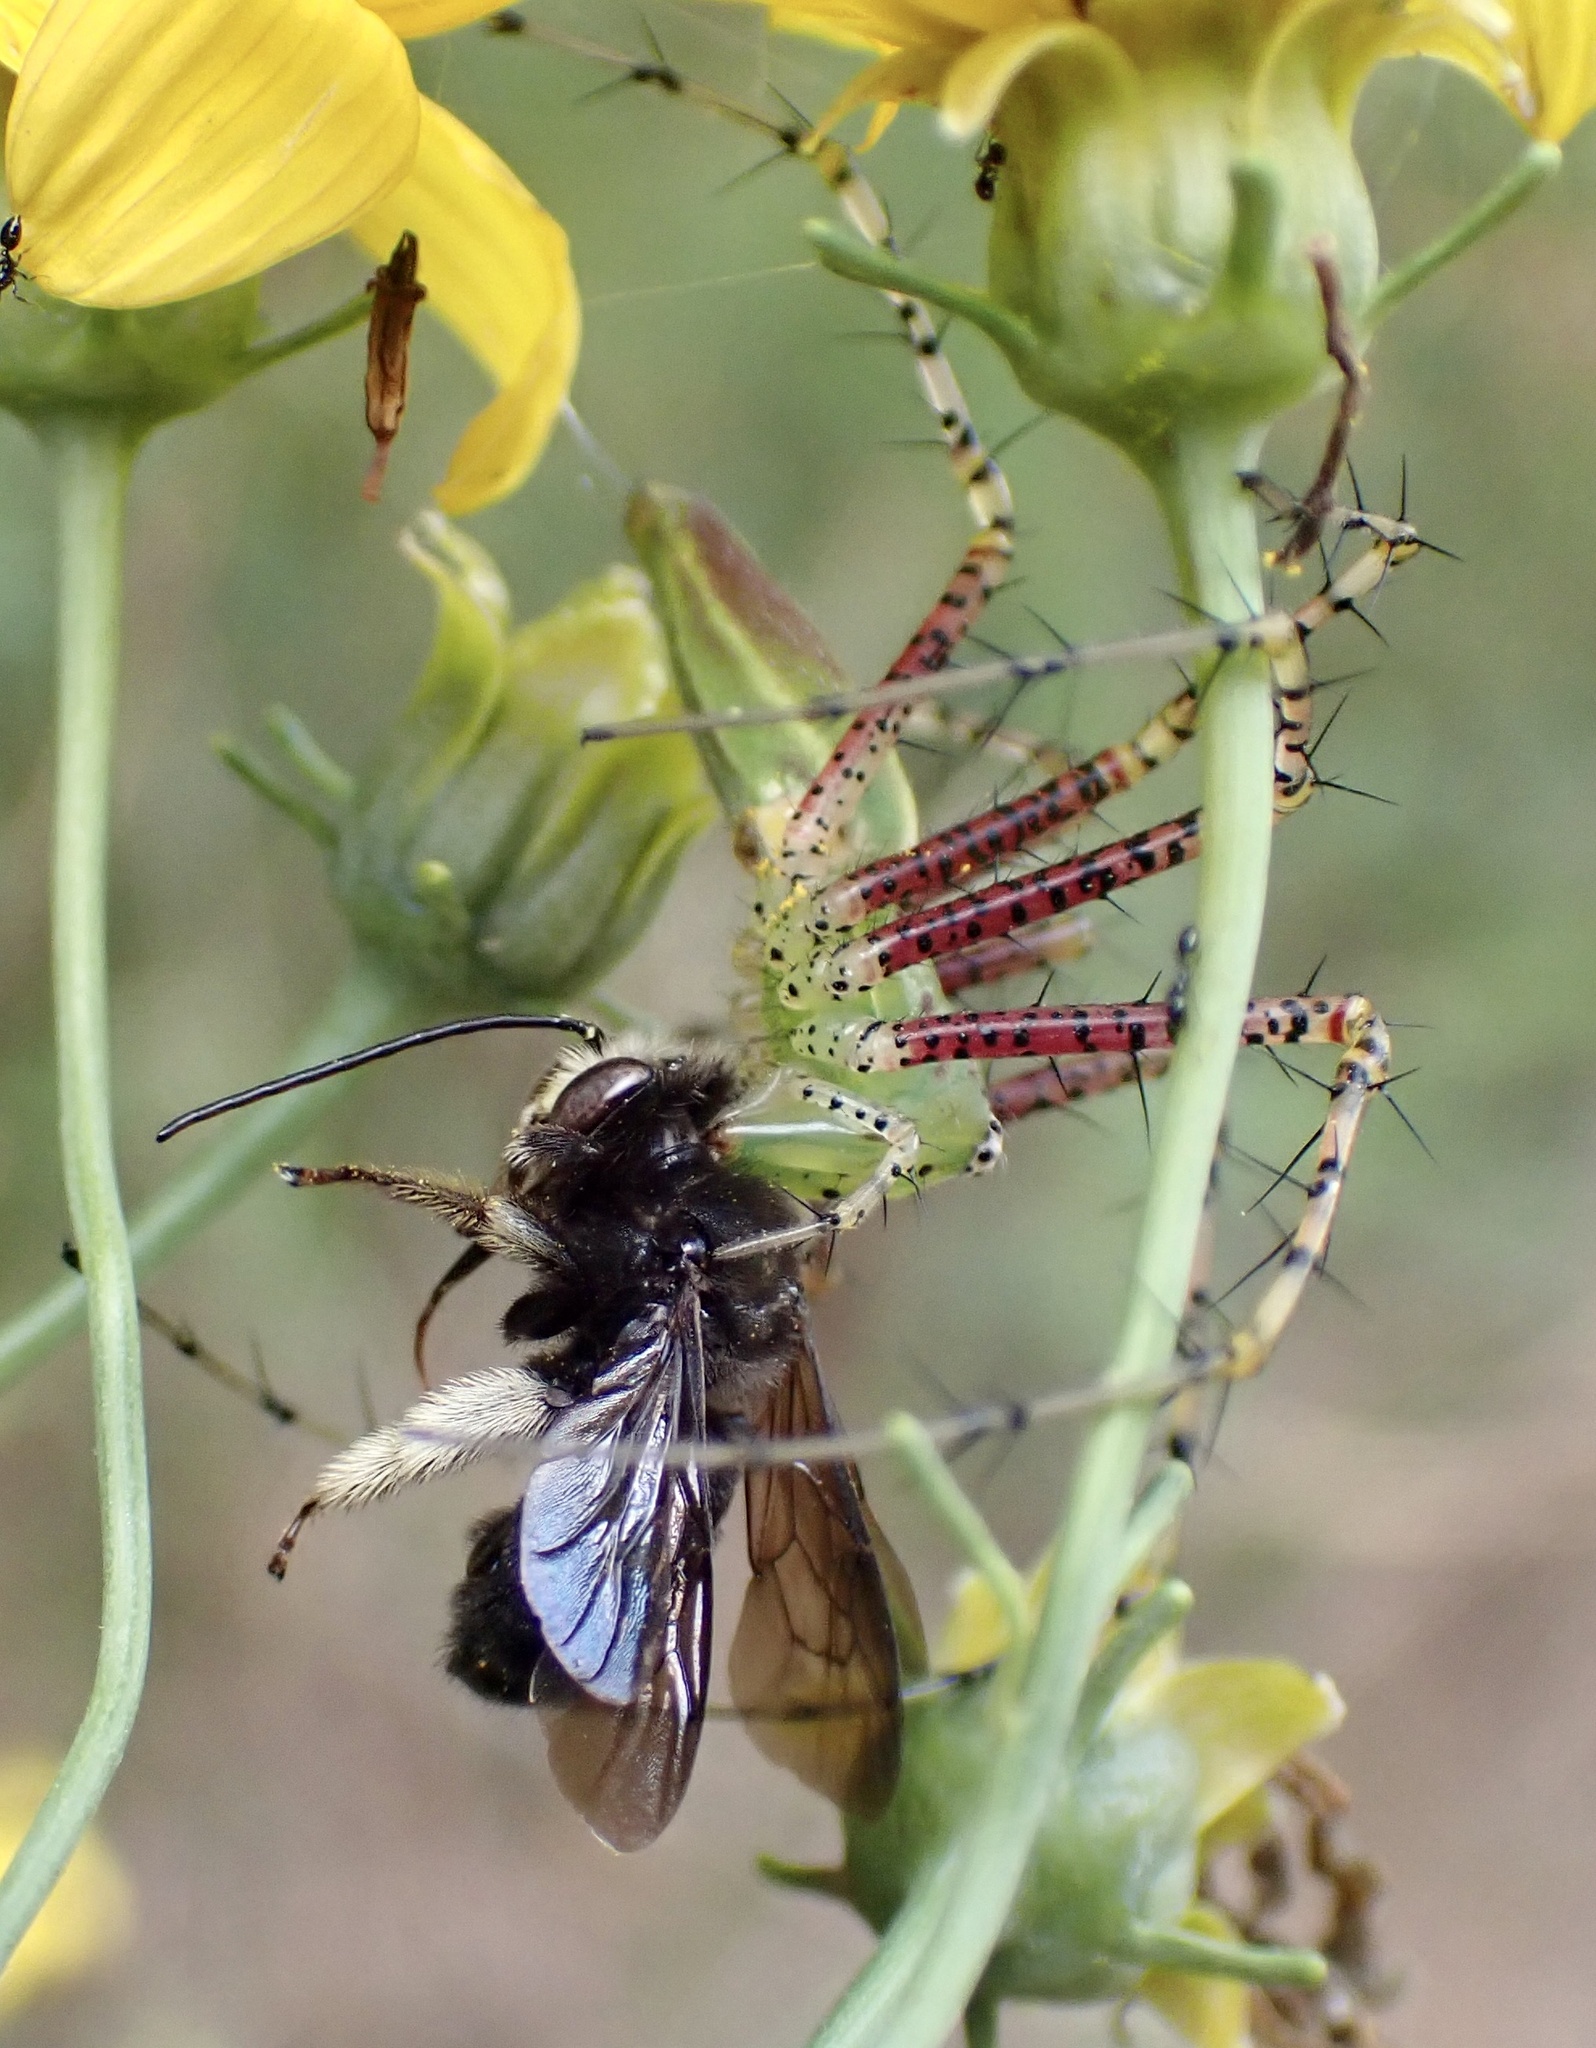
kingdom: Animalia
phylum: Arthropoda
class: Arachnida
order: Araneae
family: Oxyopidae
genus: Peucetia
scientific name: Peucetia viridans
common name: Lynx spiders
